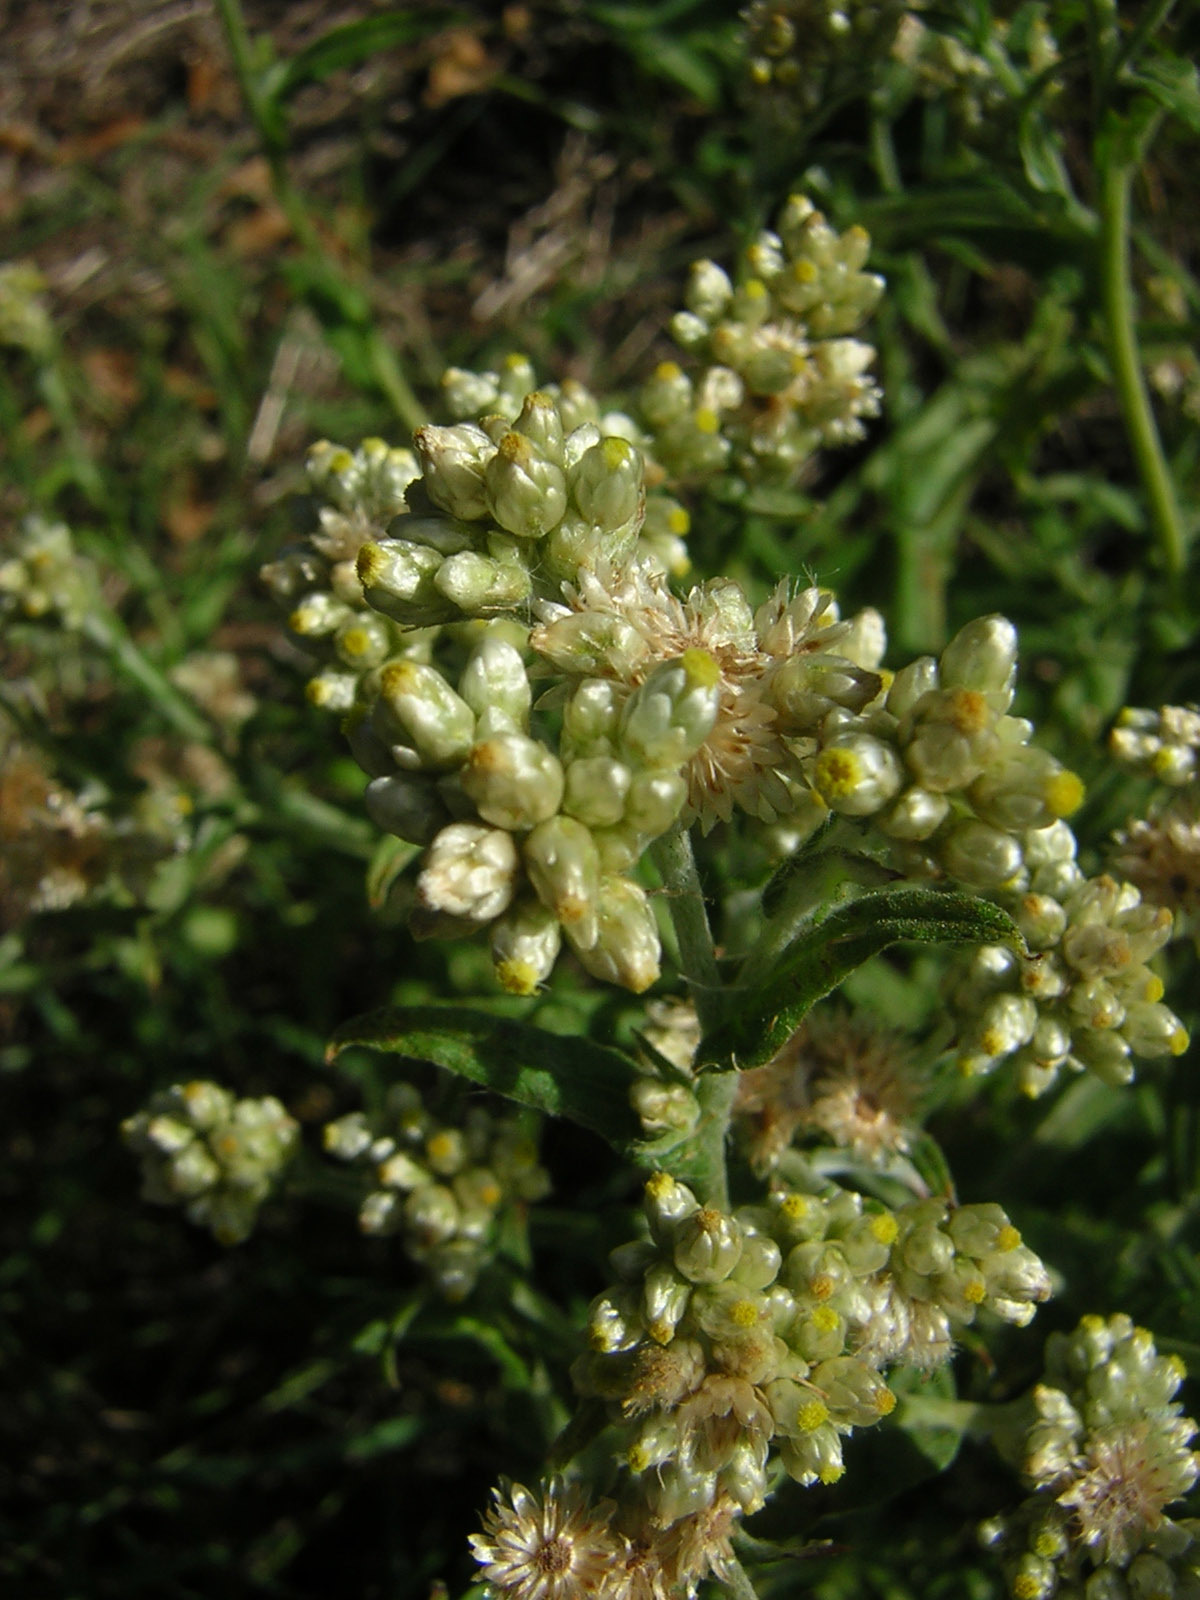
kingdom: Plantae
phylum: Tracheophyta
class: Magnoliopsida
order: Asterales
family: Asteraceae
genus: Pseudognaphalium
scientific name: Pseudognaphalium undulatum
